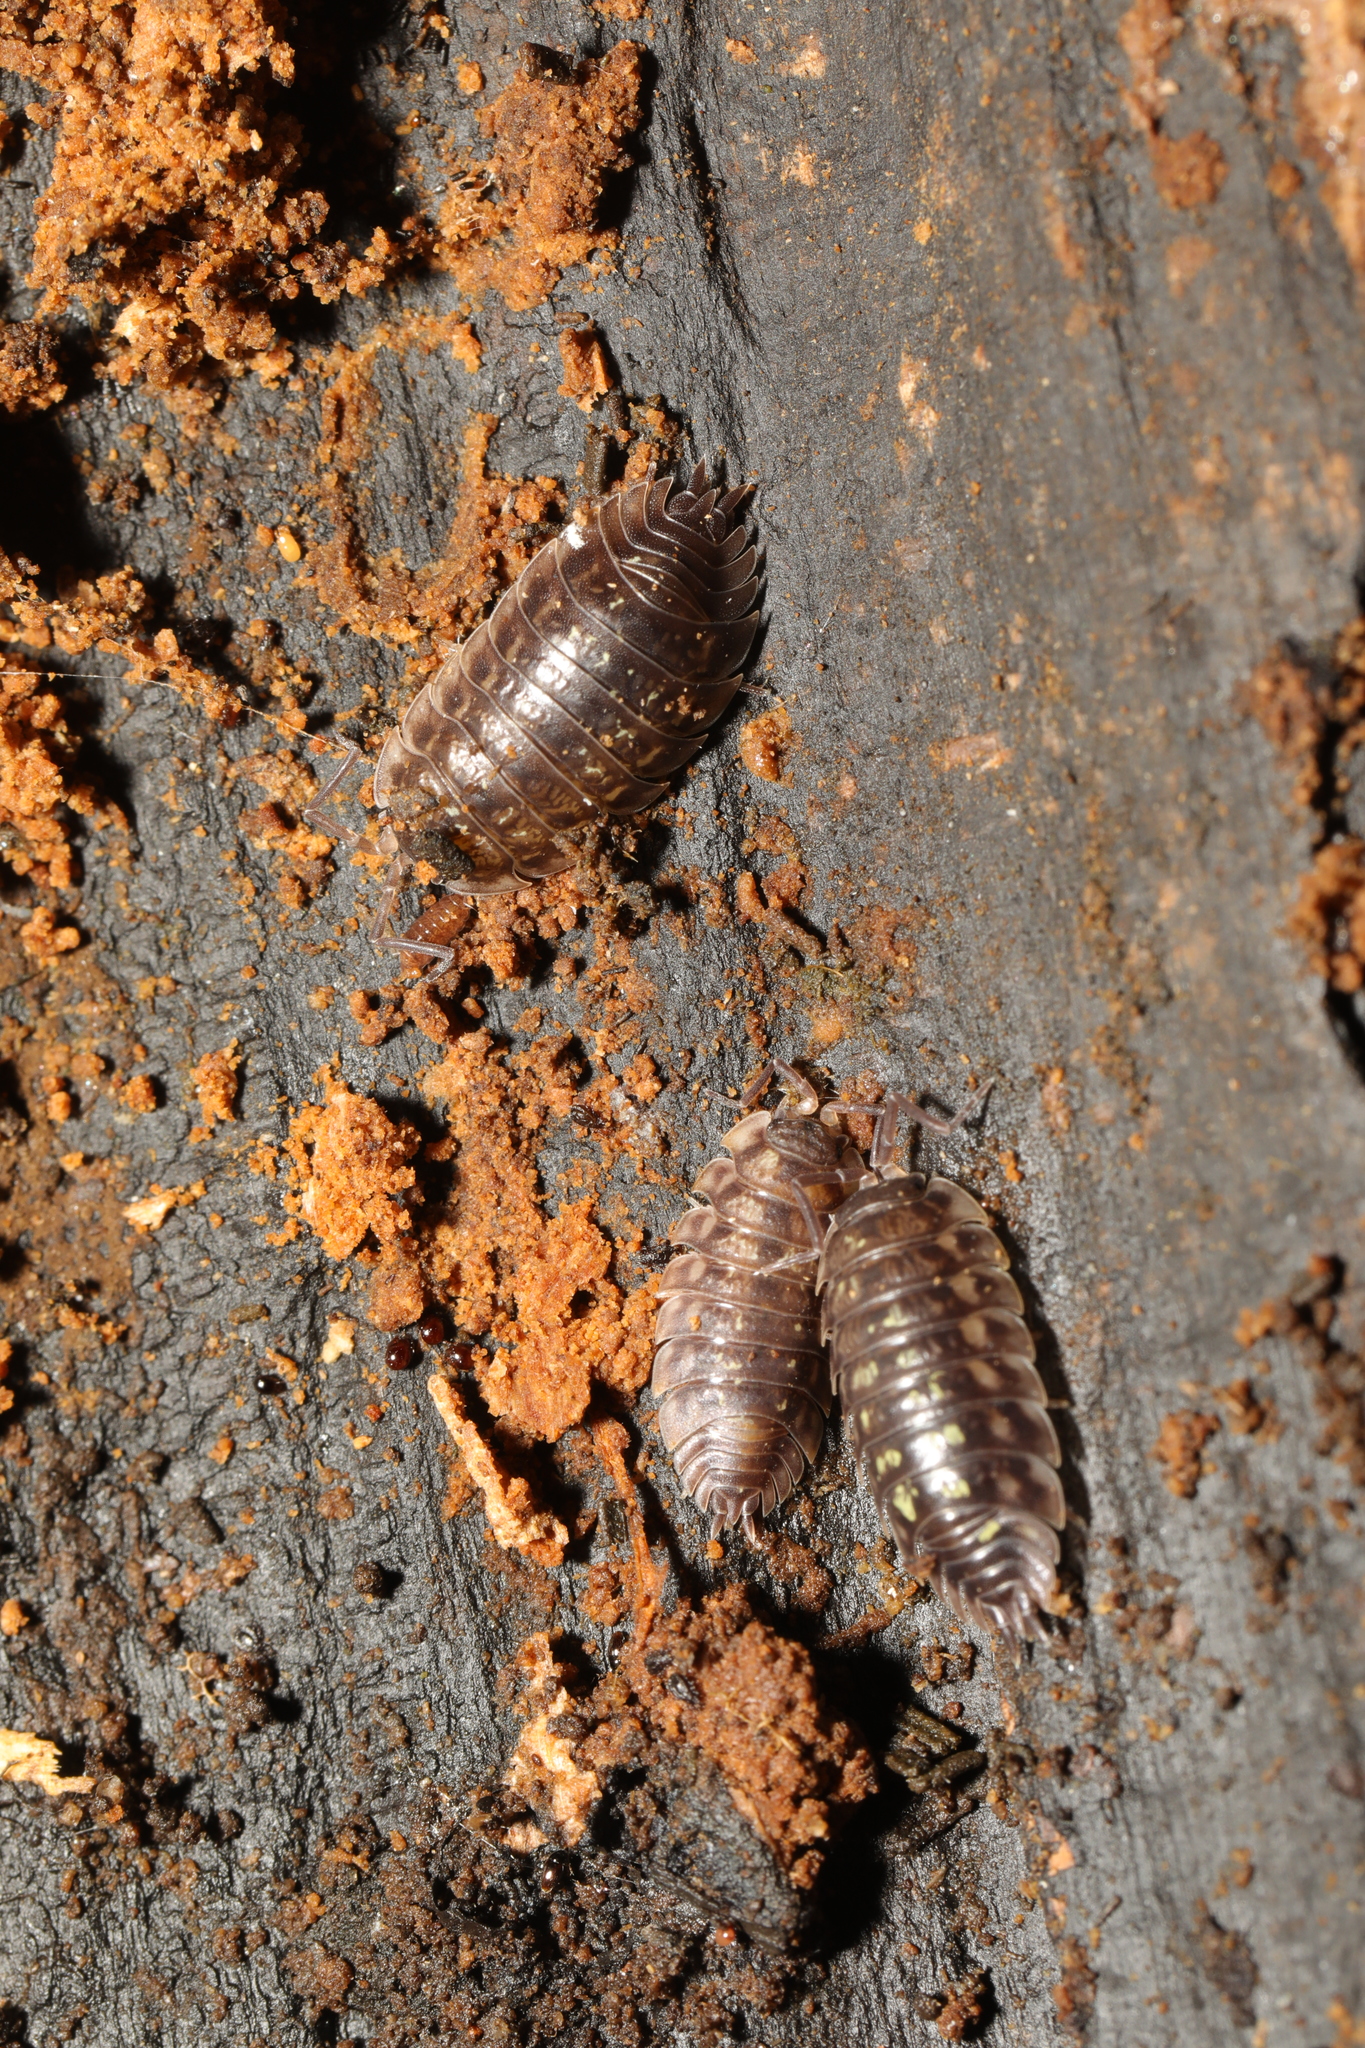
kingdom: Animalia
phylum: Arthropoda
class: Malacostraca
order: Isopoda
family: Oniscidae
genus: Oniscus
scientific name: Oniscus asellus
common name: Common shiny woodlouse
